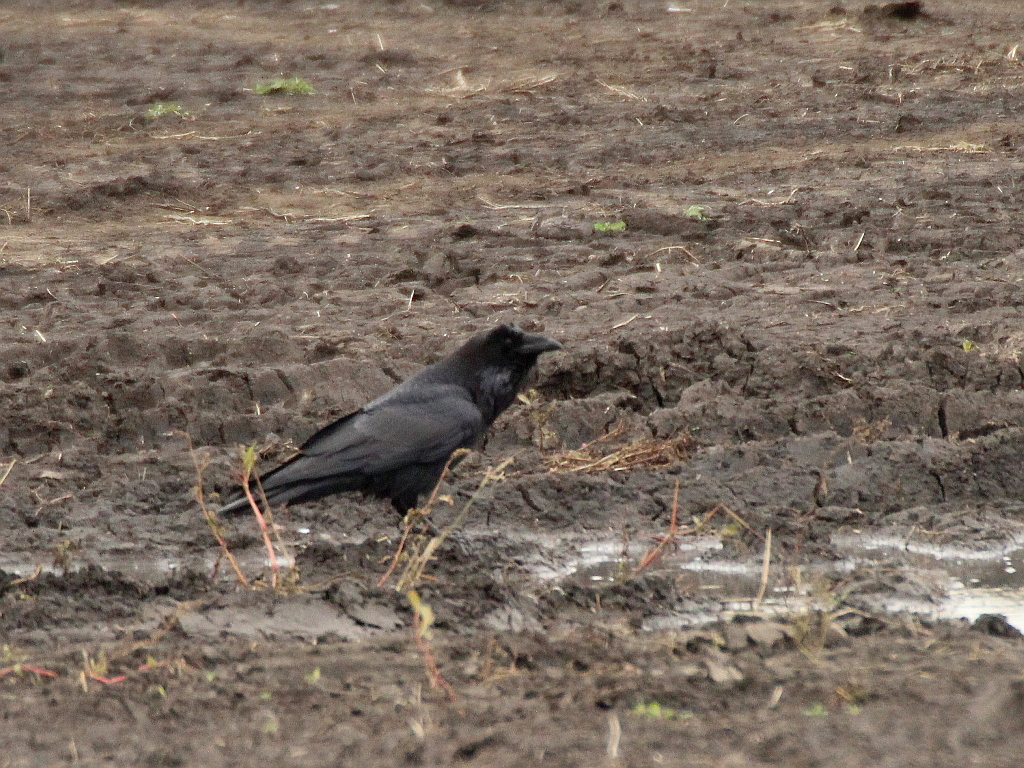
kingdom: Animalia
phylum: Chordata
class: Aves
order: Passeriformes
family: Corvidae
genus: Corvus
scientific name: Corvus corax
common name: Common raven
